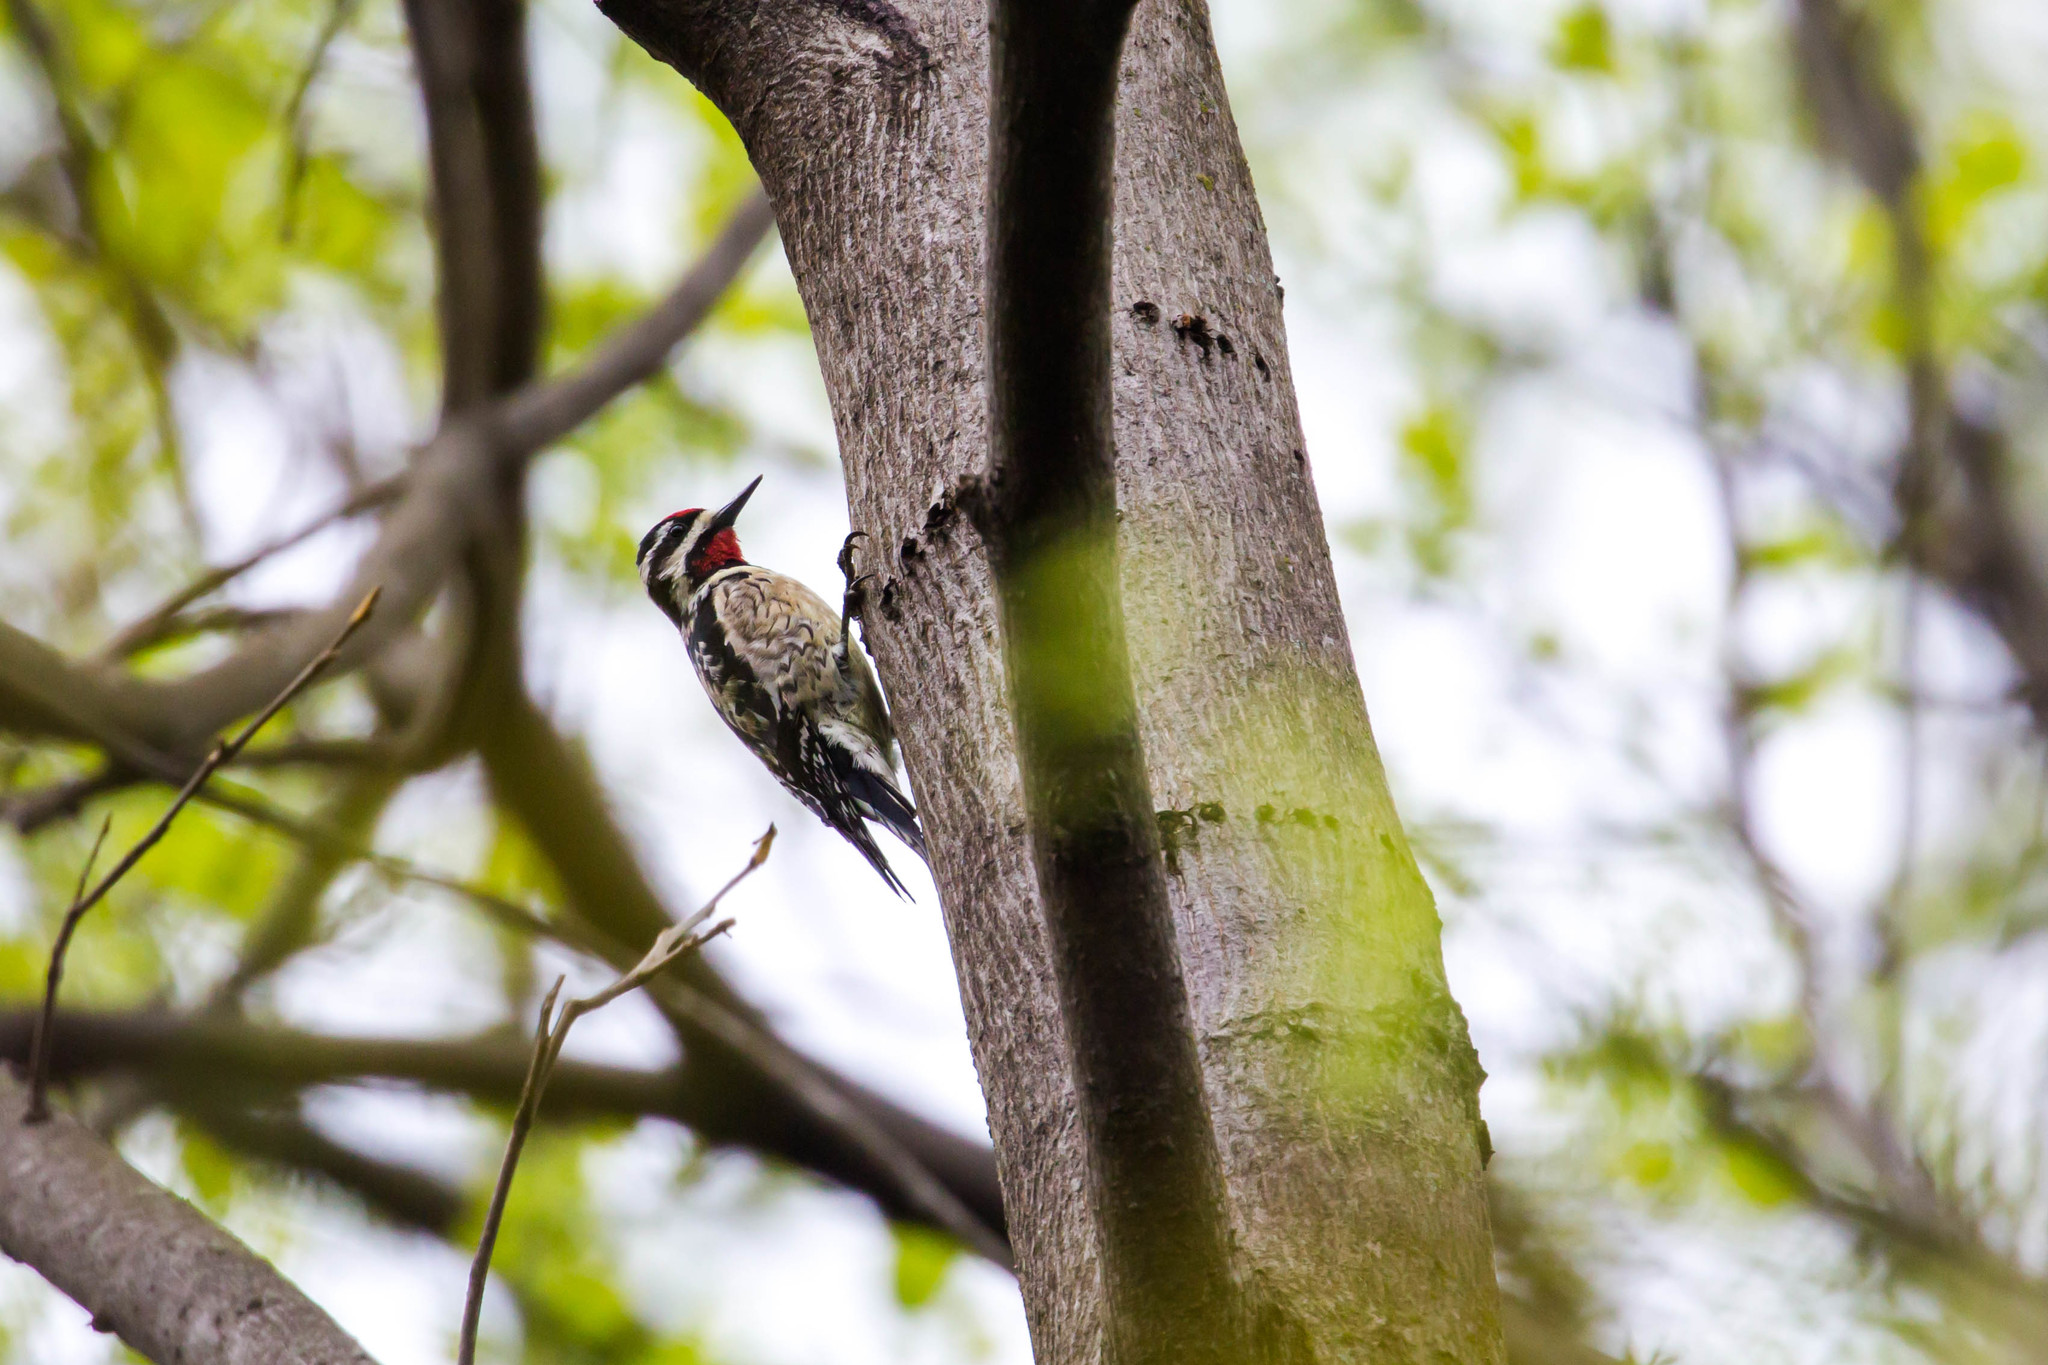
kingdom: Animalia
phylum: Chordata
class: Aves
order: Piciformes
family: Picidae
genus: Sphyrapicus
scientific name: Sphyrapicus varius
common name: Yellow-bellied sapsucker
